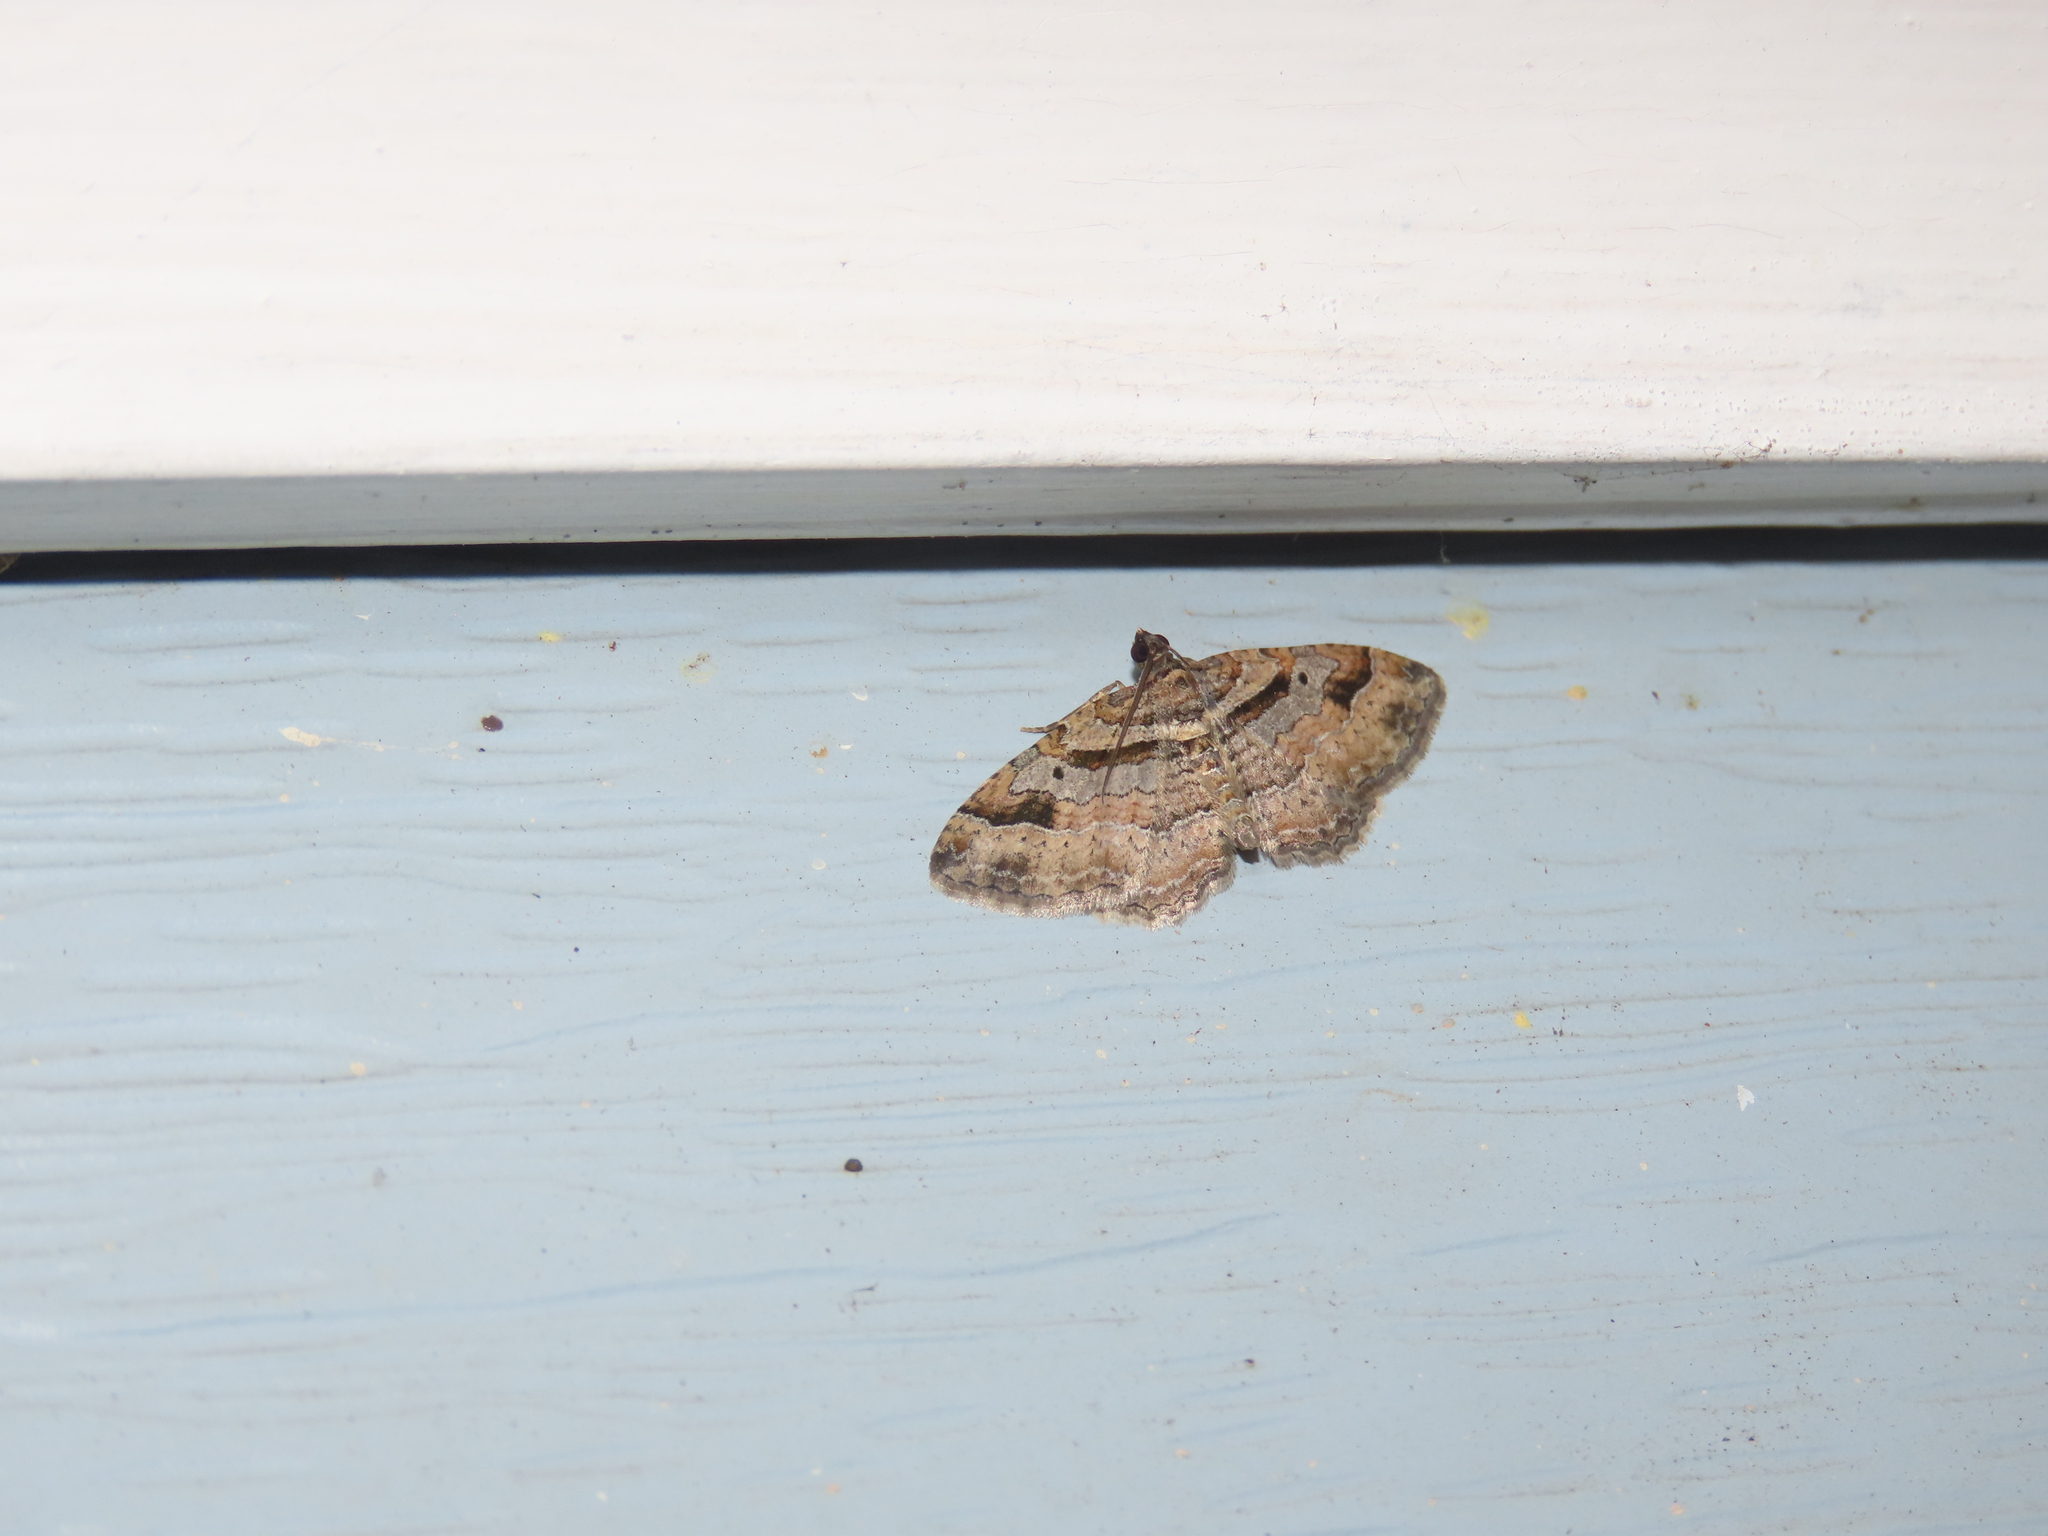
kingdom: Animalia
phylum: Arthropoda
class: Insecta
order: Lepidoptera
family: Geometridae
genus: Costaconvexa
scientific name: Costaconvexa centrostrigaria
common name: Bent-line carpet
